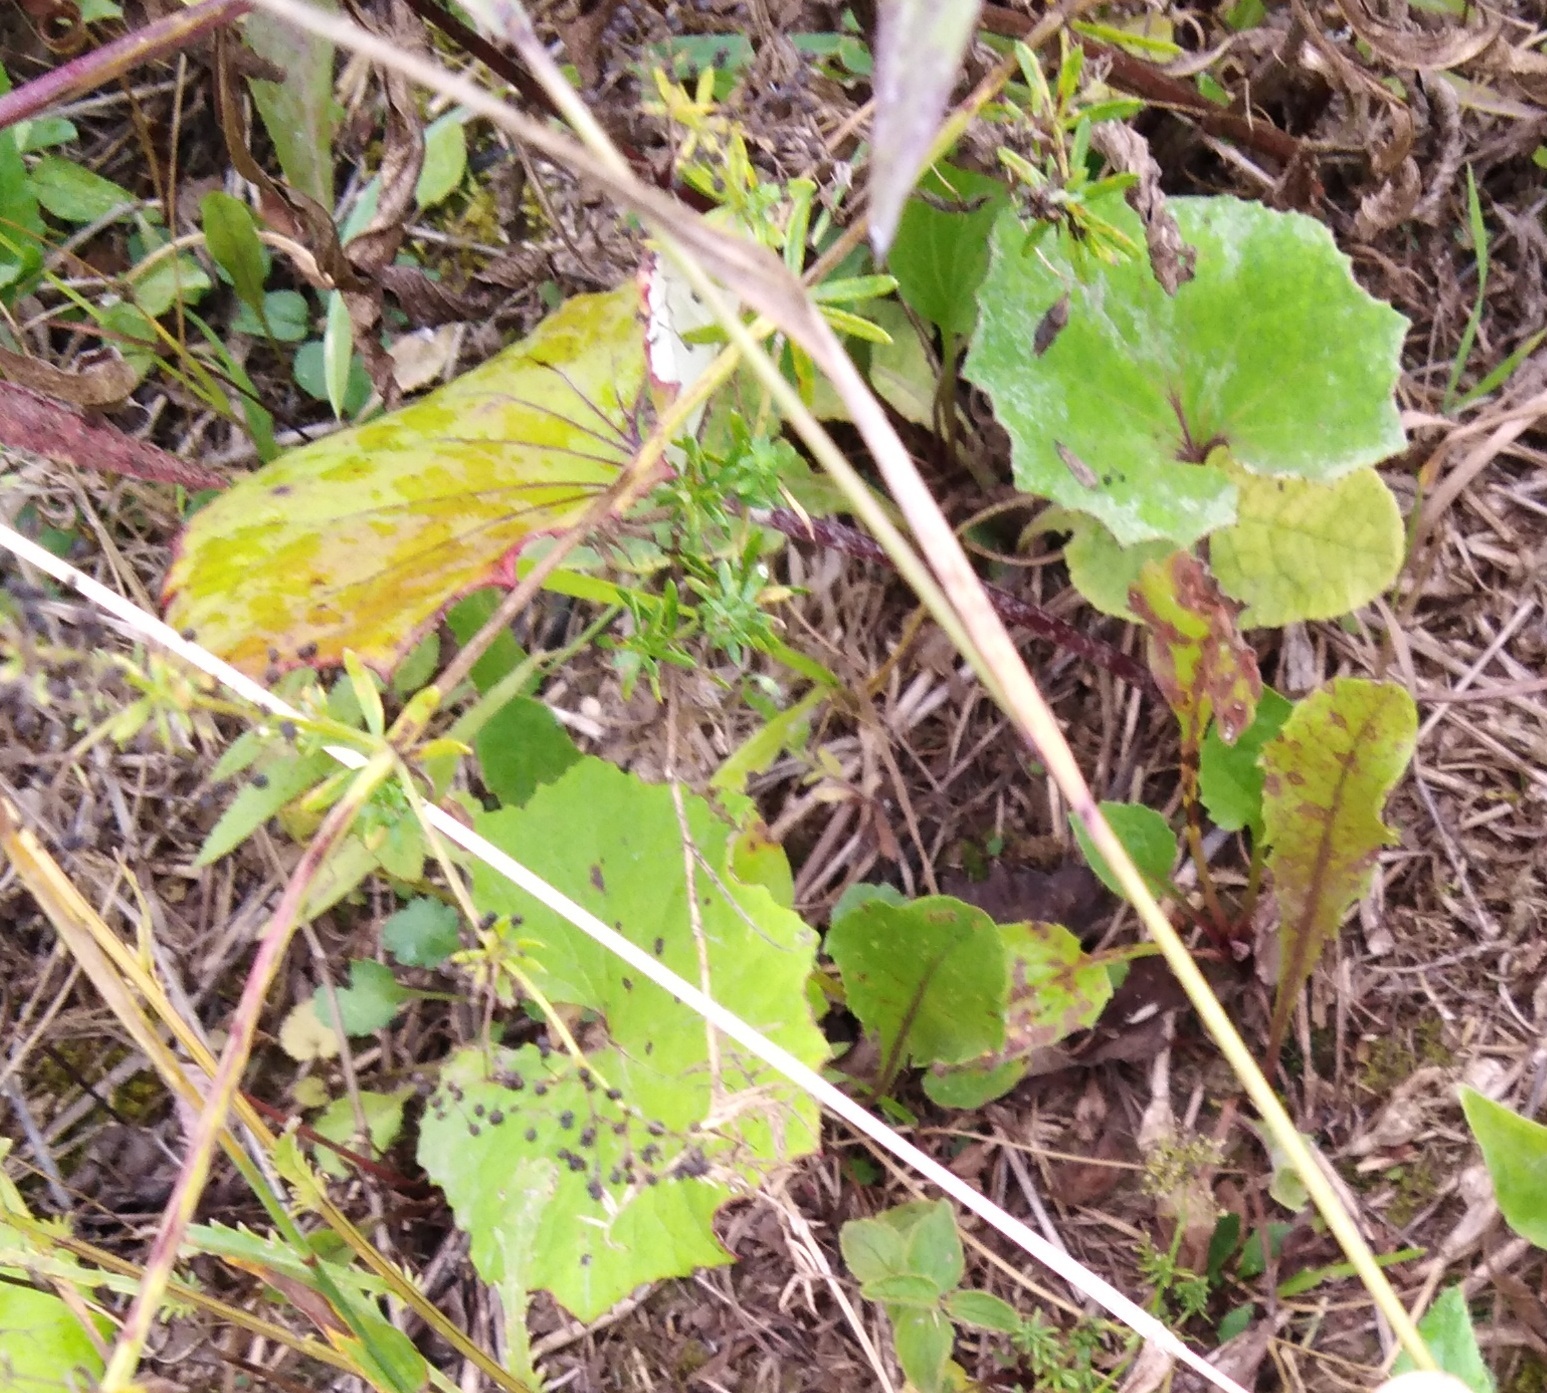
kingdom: Plantae
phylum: Tracheophyta
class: Magnoliopsida
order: Asterales
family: Asteraceae
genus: Tussilago
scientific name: Tussilago farfara
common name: Coltsfoot
